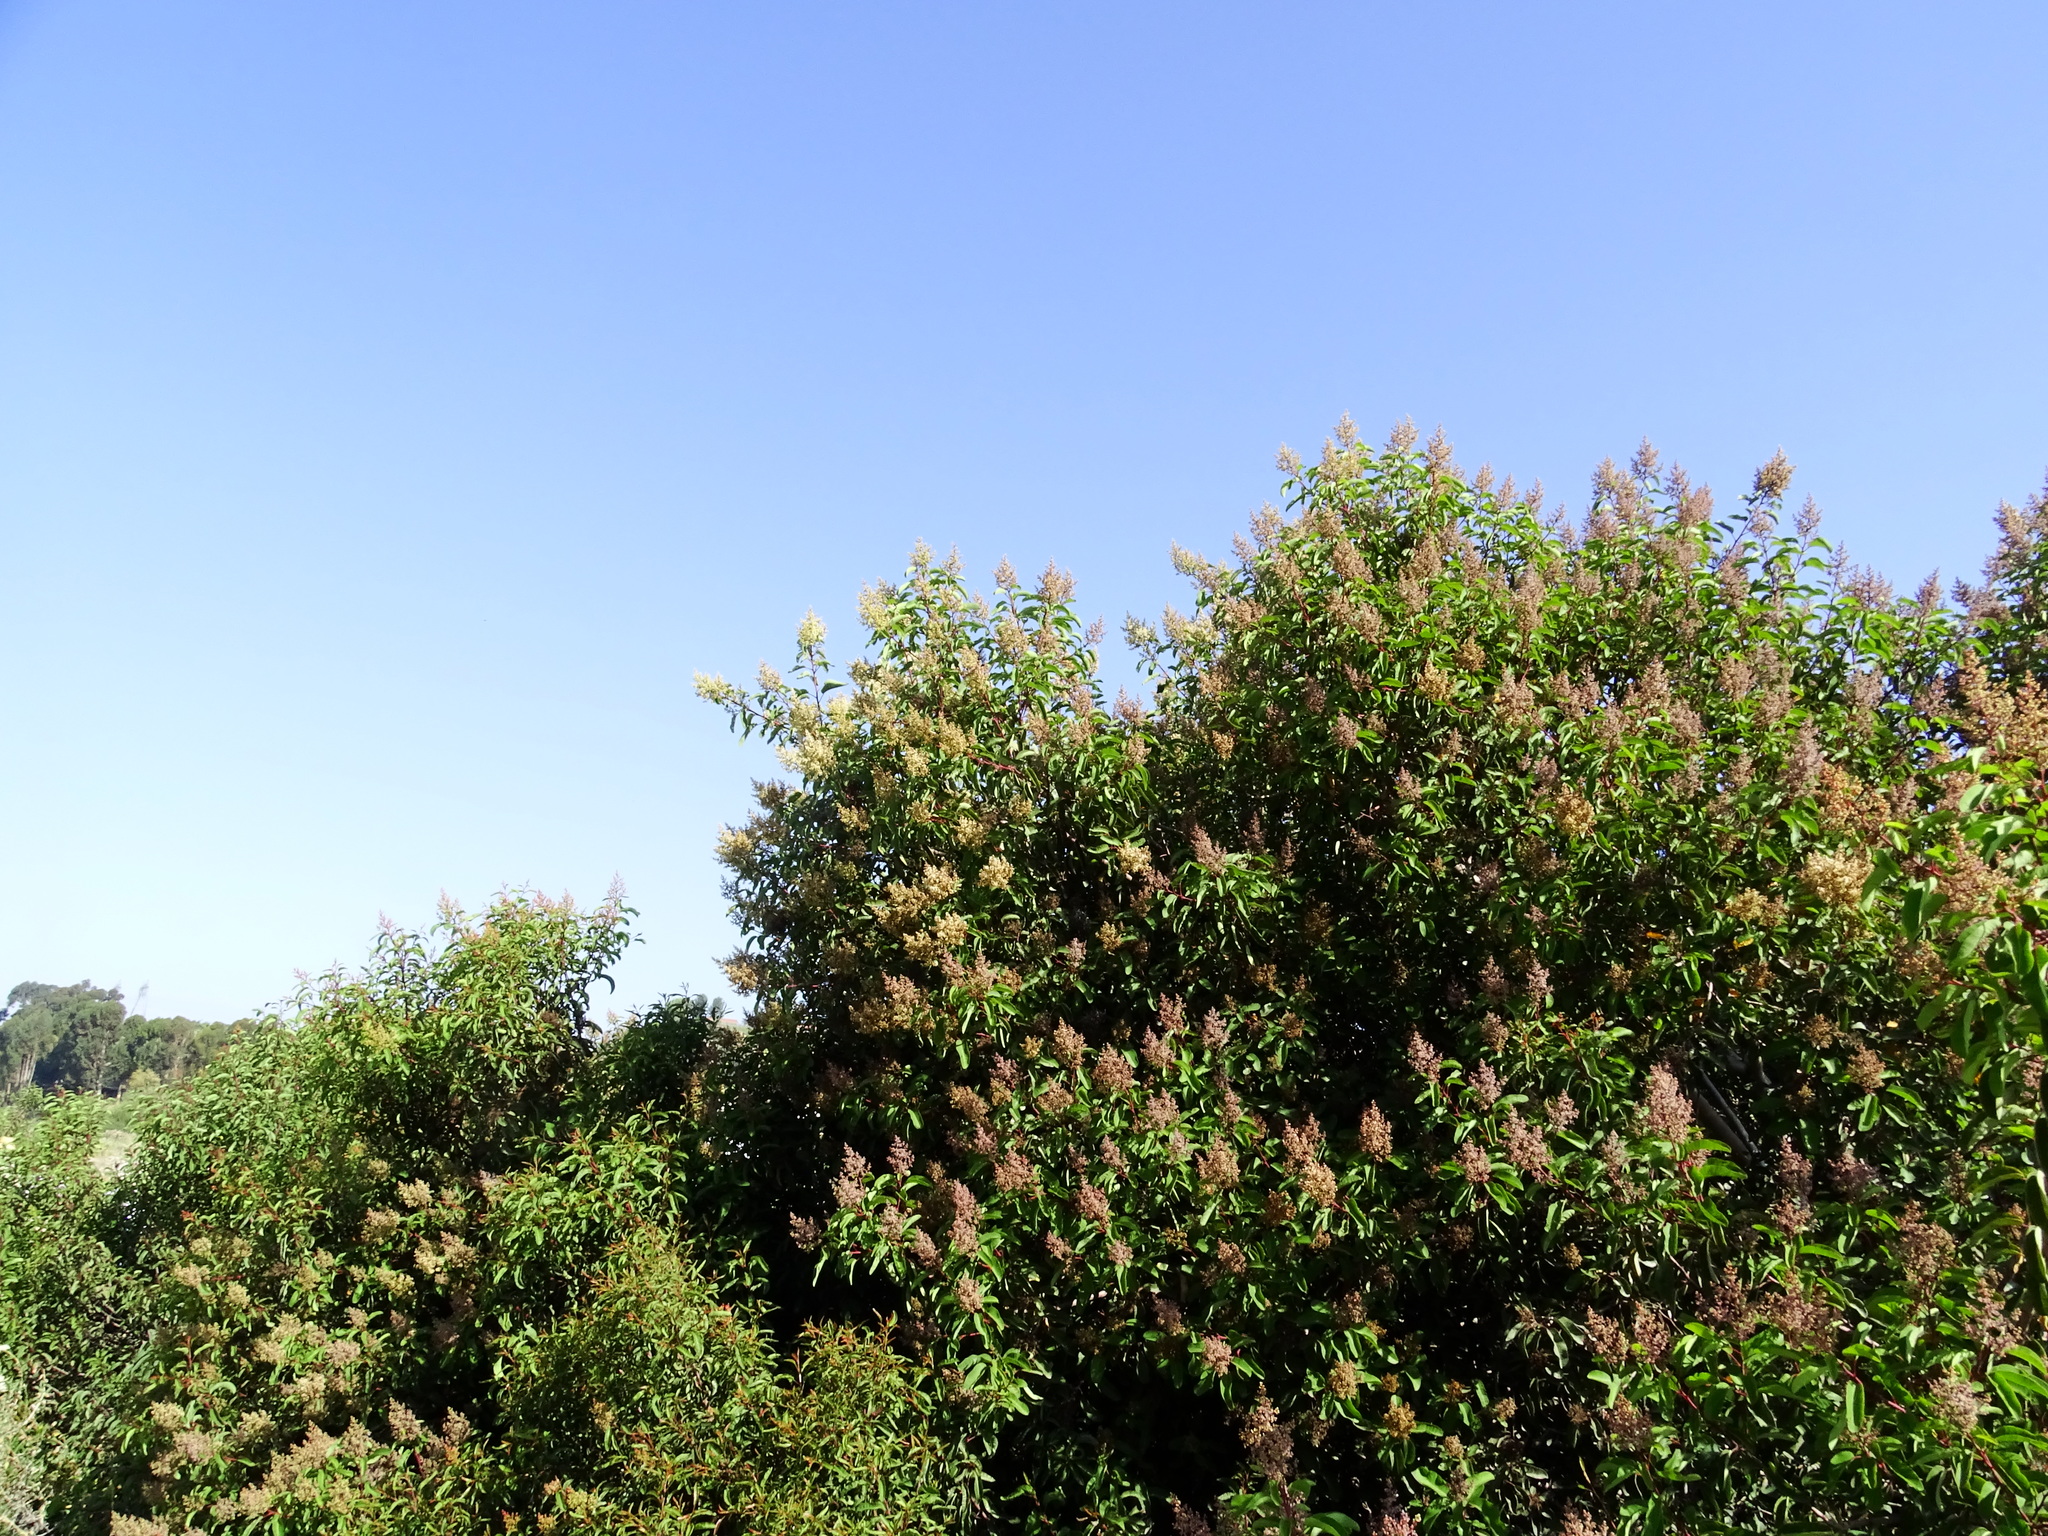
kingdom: Plantae
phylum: Tracheophyta
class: Magnoliopsida
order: Sapindales
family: Anacardiaceae
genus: Malosma
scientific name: Malosma laurina
